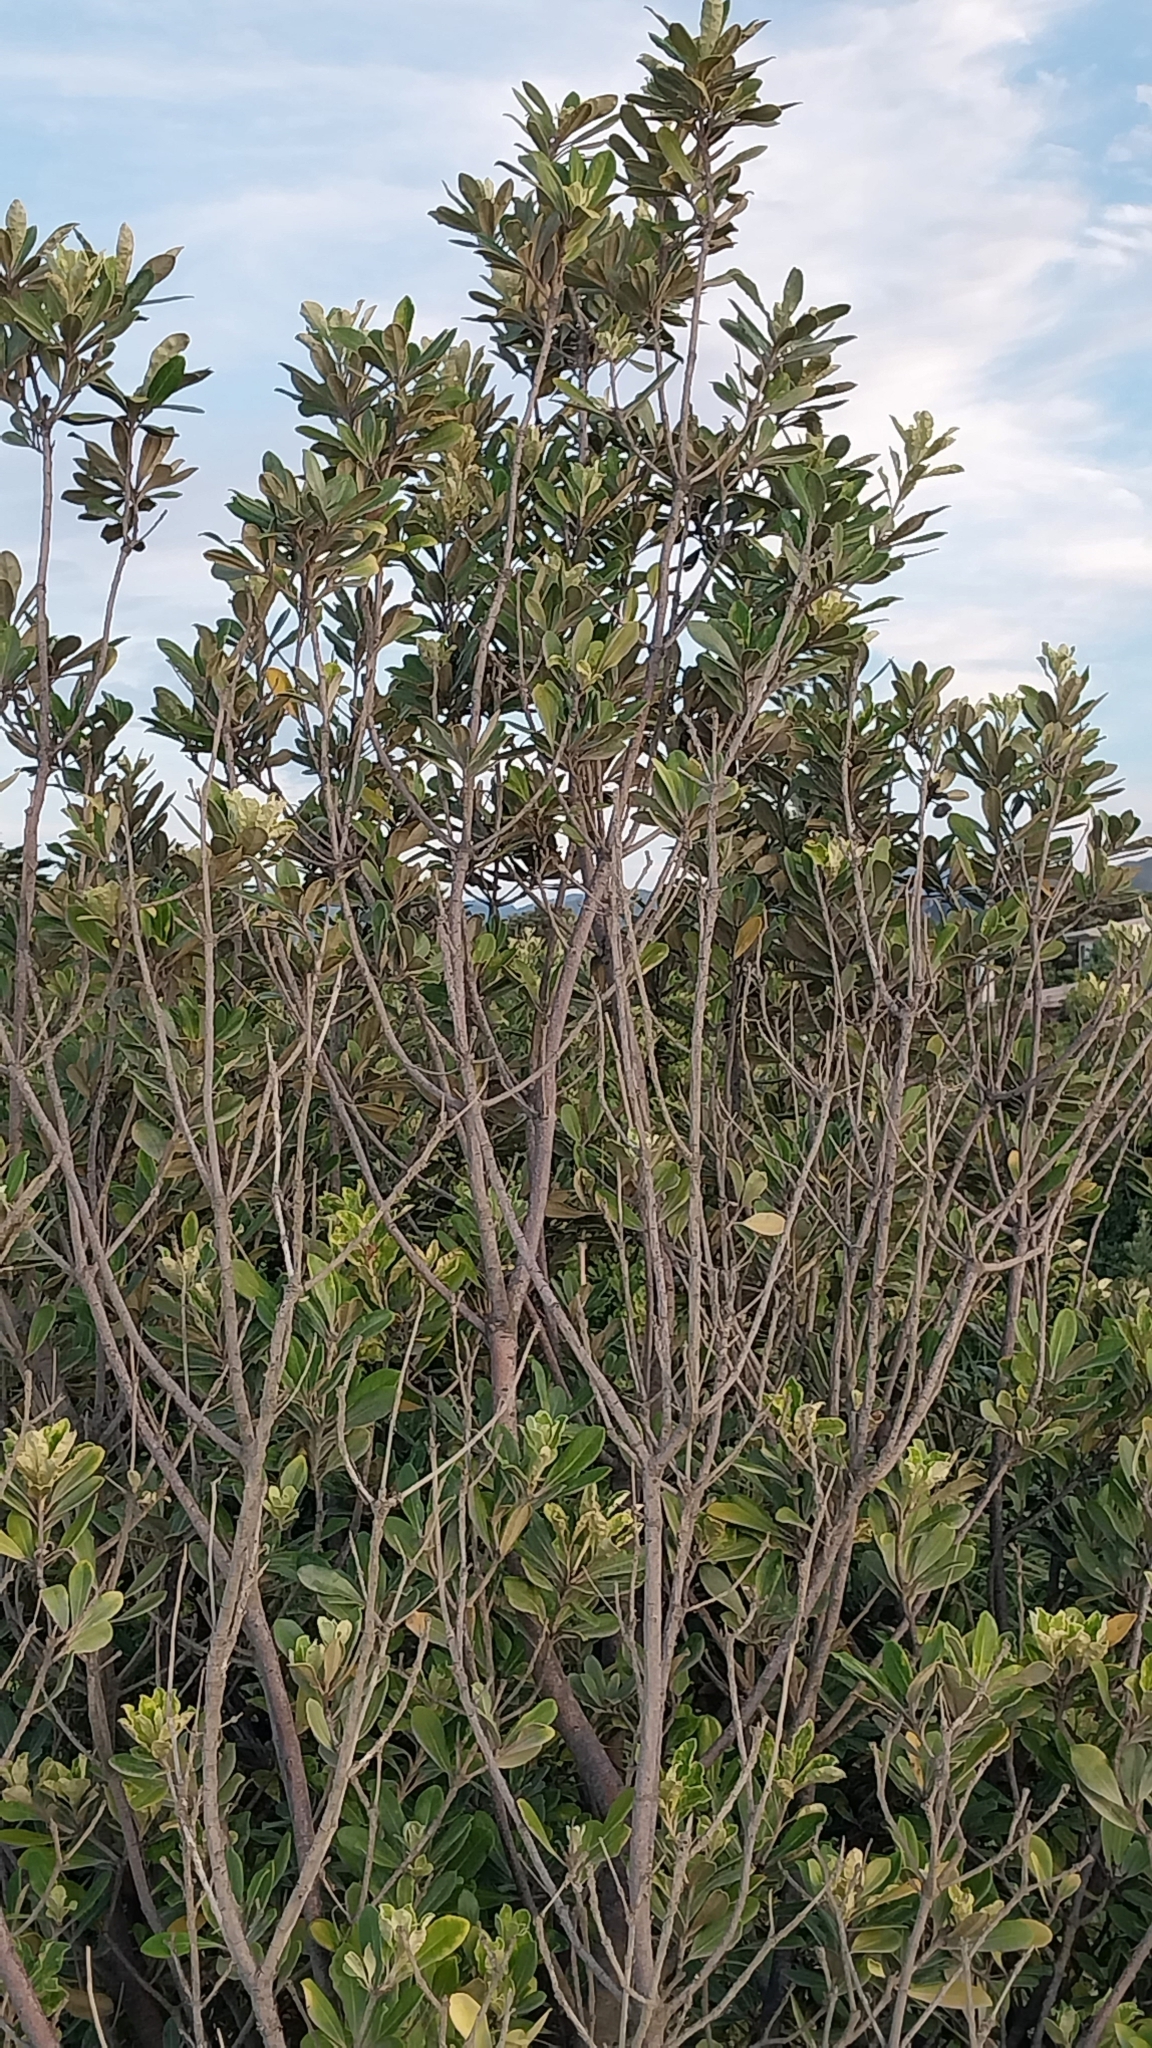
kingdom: Plantae
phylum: Tracheophyta
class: Magnoliopsida
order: Apiales
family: Pittosporaceae
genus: Pittosporum
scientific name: Pittosporum crassifolium
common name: Karo
